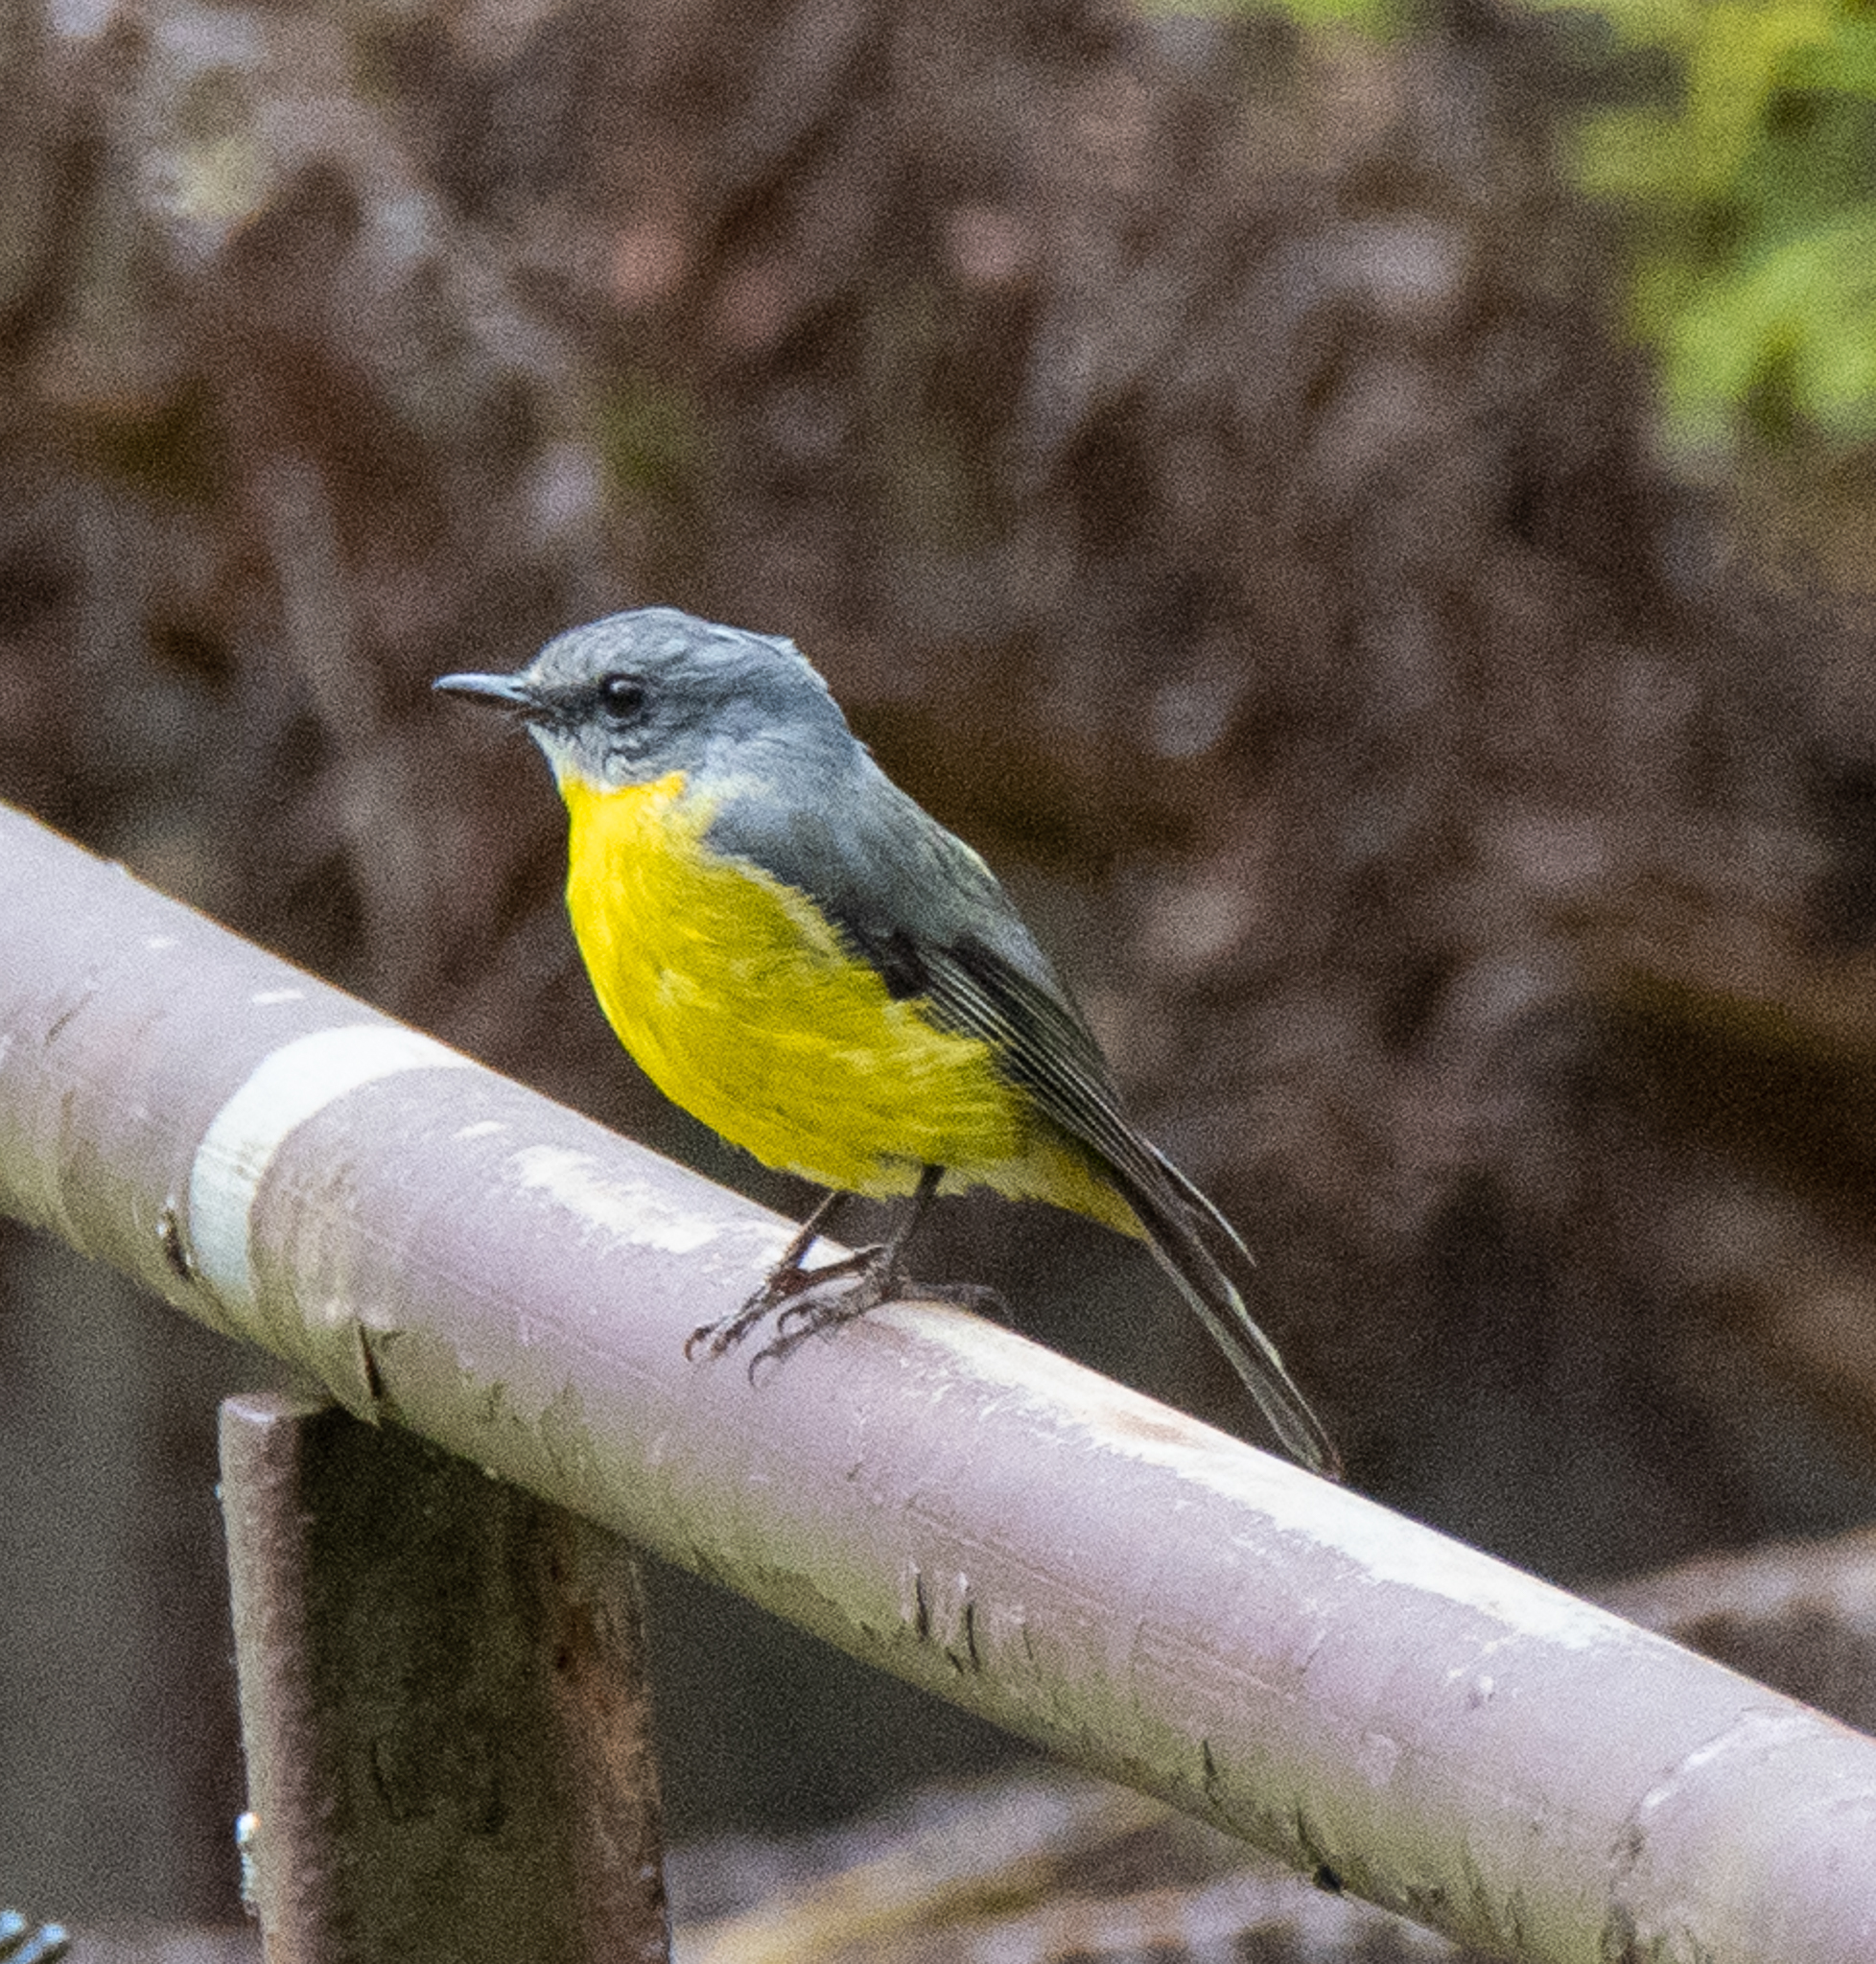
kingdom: Animalia
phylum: Chordata
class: Aves
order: Passeriformes
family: Petroicidae
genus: Eopsaltria
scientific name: Eopsaltria australis
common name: Eastern yellow robin
